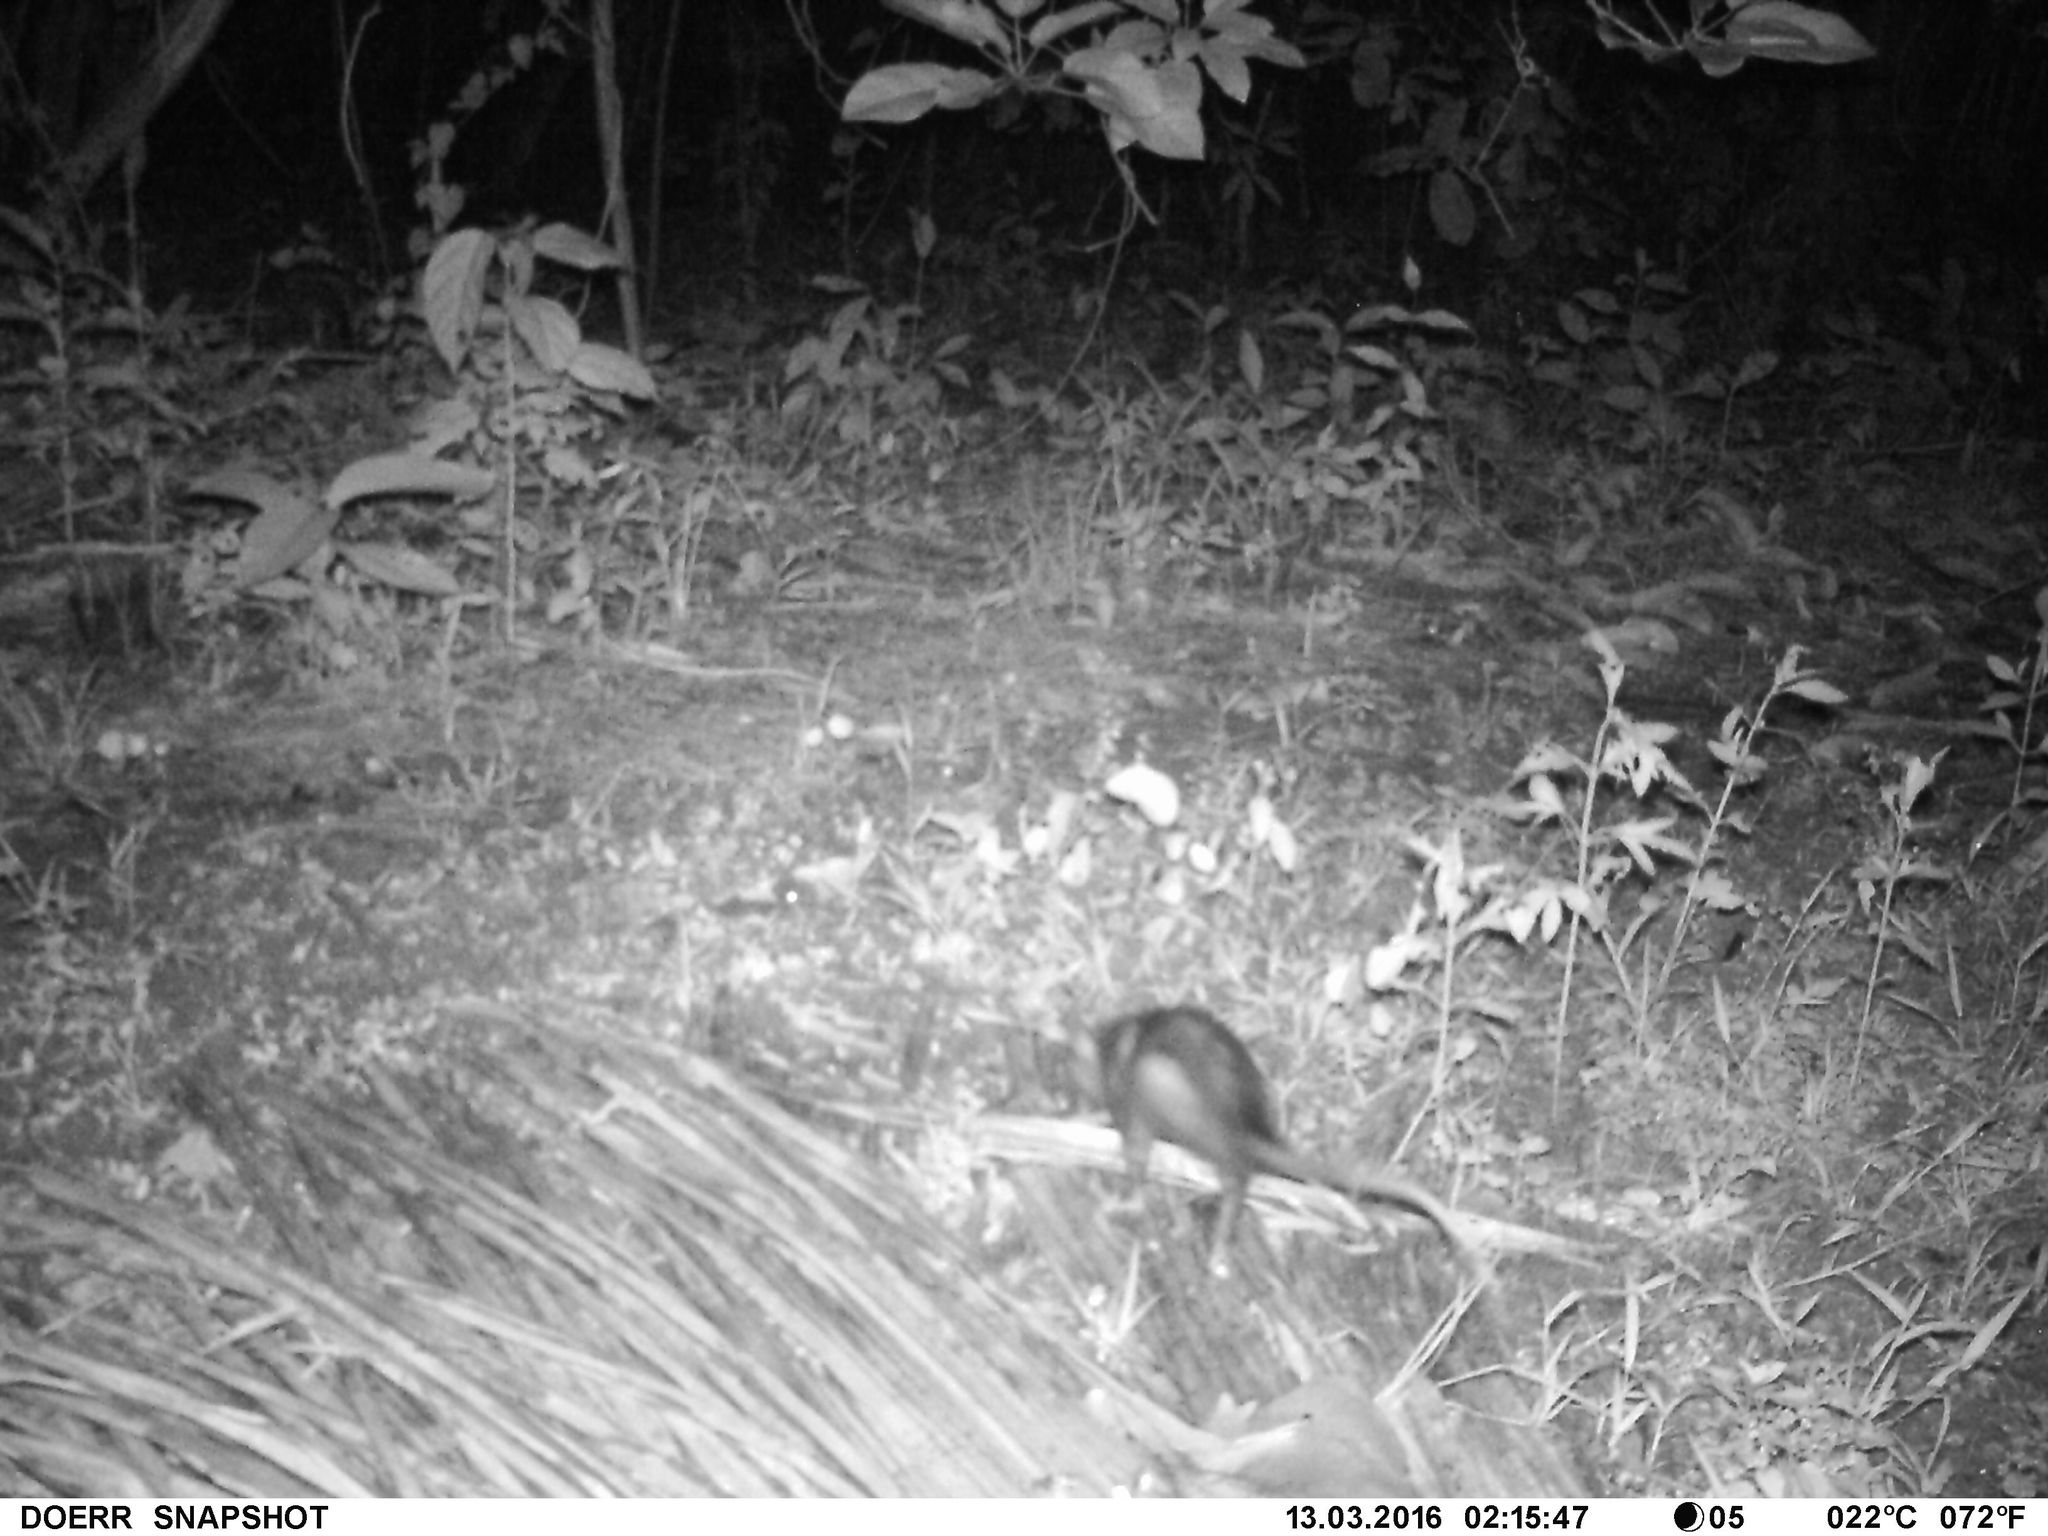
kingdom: Animalia
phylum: Chordata
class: Mammalia
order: Didelphimorphia
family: Didelphidae
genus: Didelphis
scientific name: Didelphis marsupialis
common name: Common opossum
